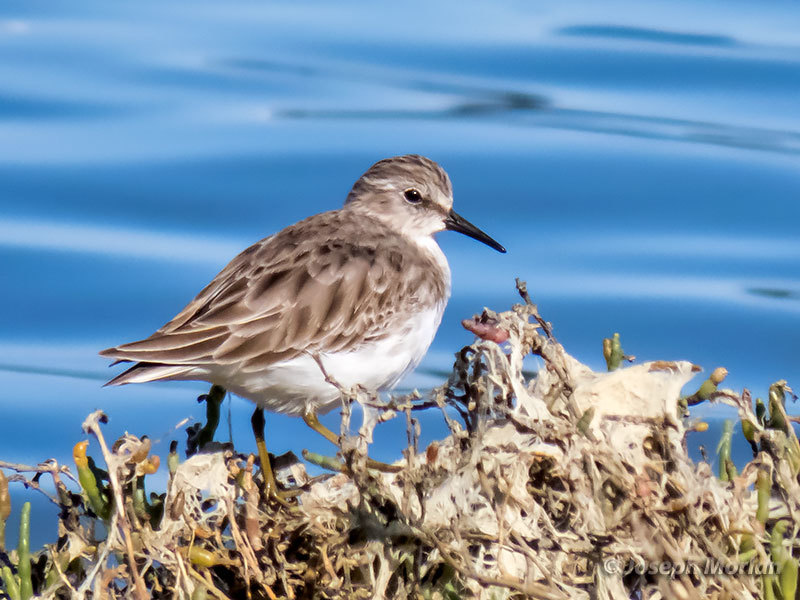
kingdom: Animalia
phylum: Chordata
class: Aves
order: Charadriiformes
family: Scolopacidae
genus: Calidris
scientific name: Calidris minutilla
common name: Least sandpiper
